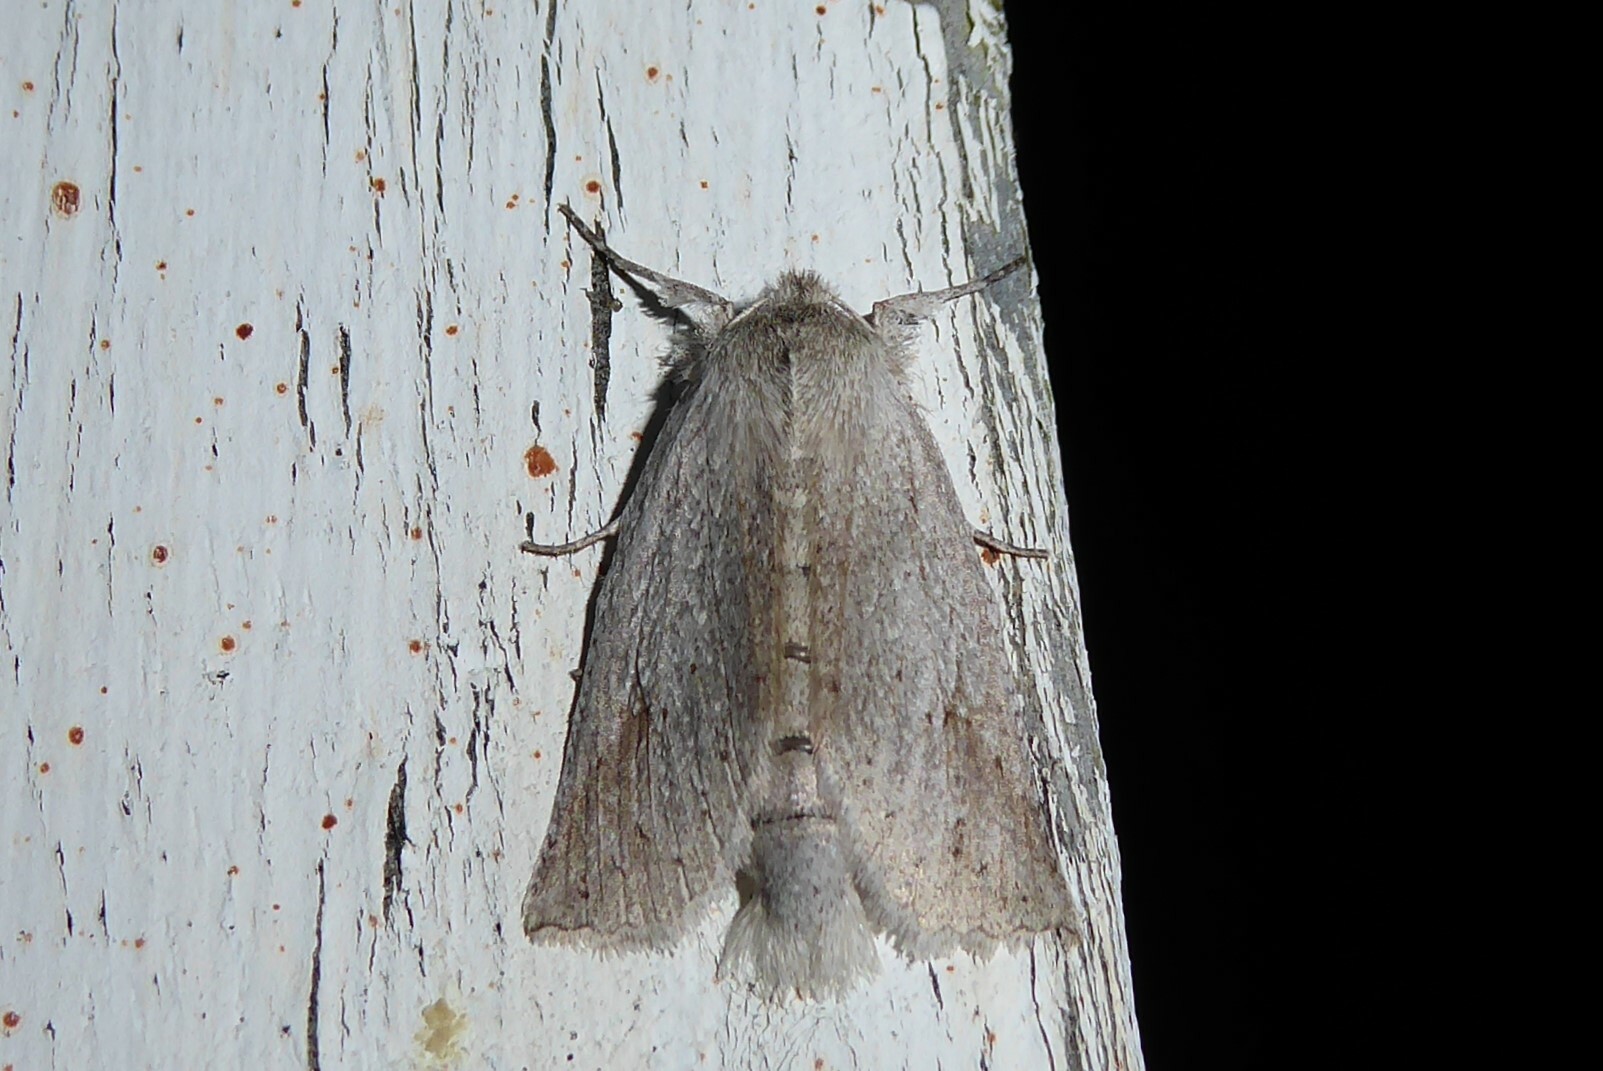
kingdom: Animalia
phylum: Arthropoda
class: Insecta
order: Lepidoptera
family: Geometridae
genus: Declana
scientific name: Declana leptomera
